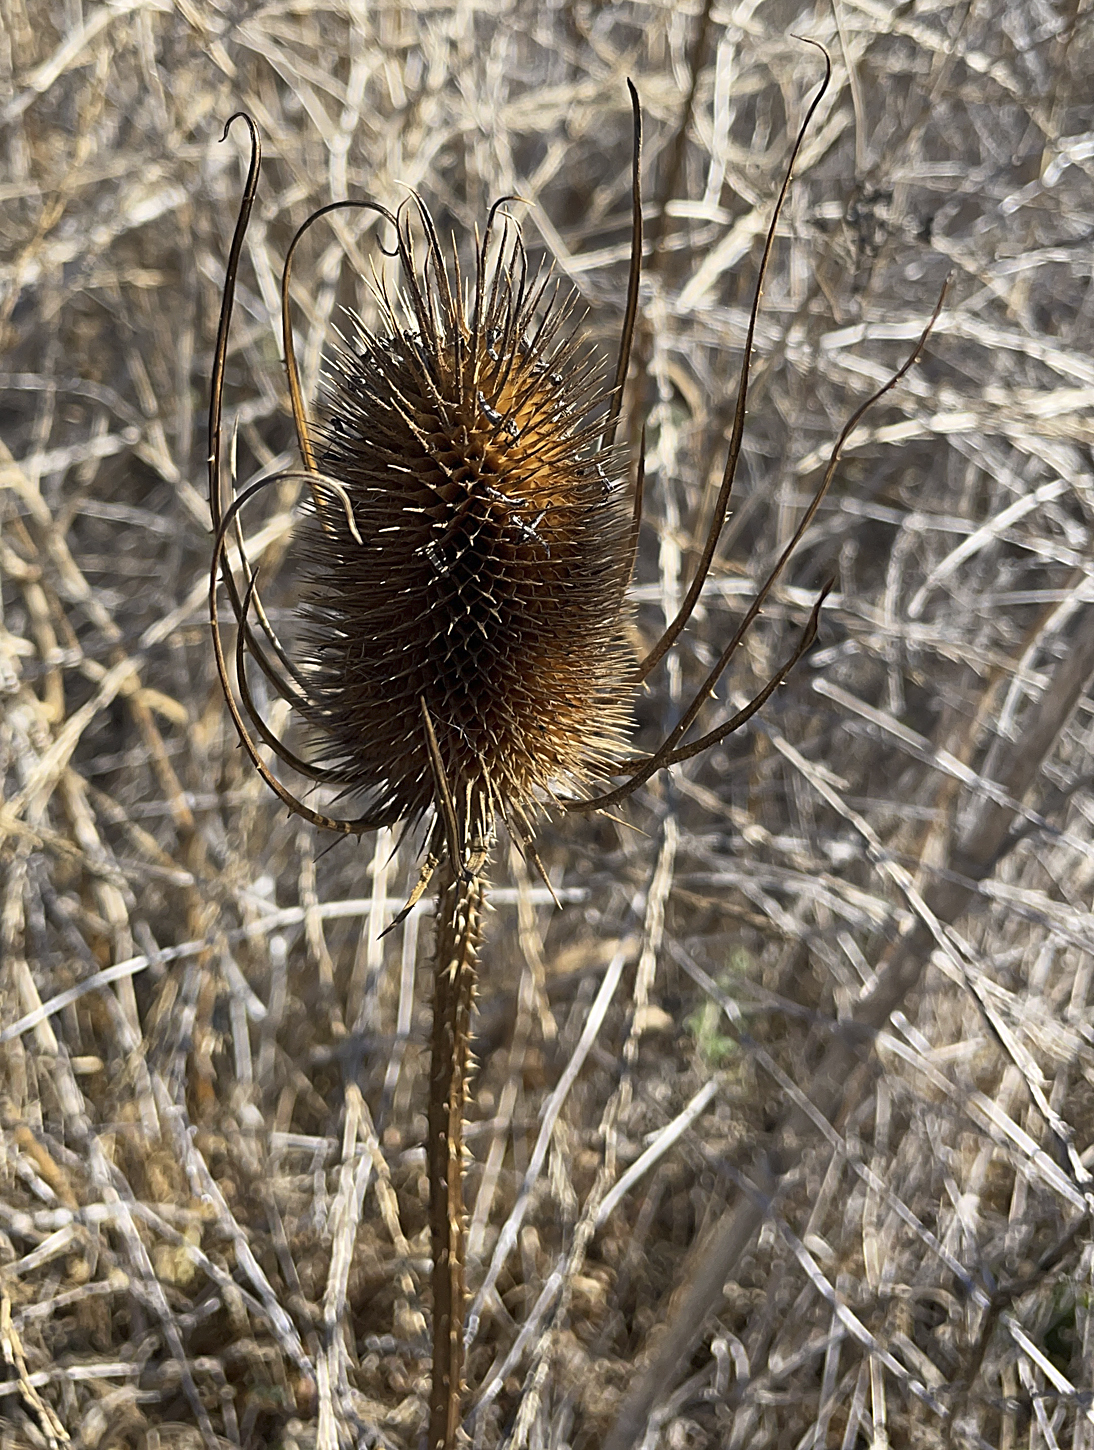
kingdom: Plantae
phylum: Tracheophyta
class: Magnoliopsida
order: Dipsacales
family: Caprifoliaceae
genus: Dipsacus
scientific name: Dipsacus fullonum
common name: Teasel
